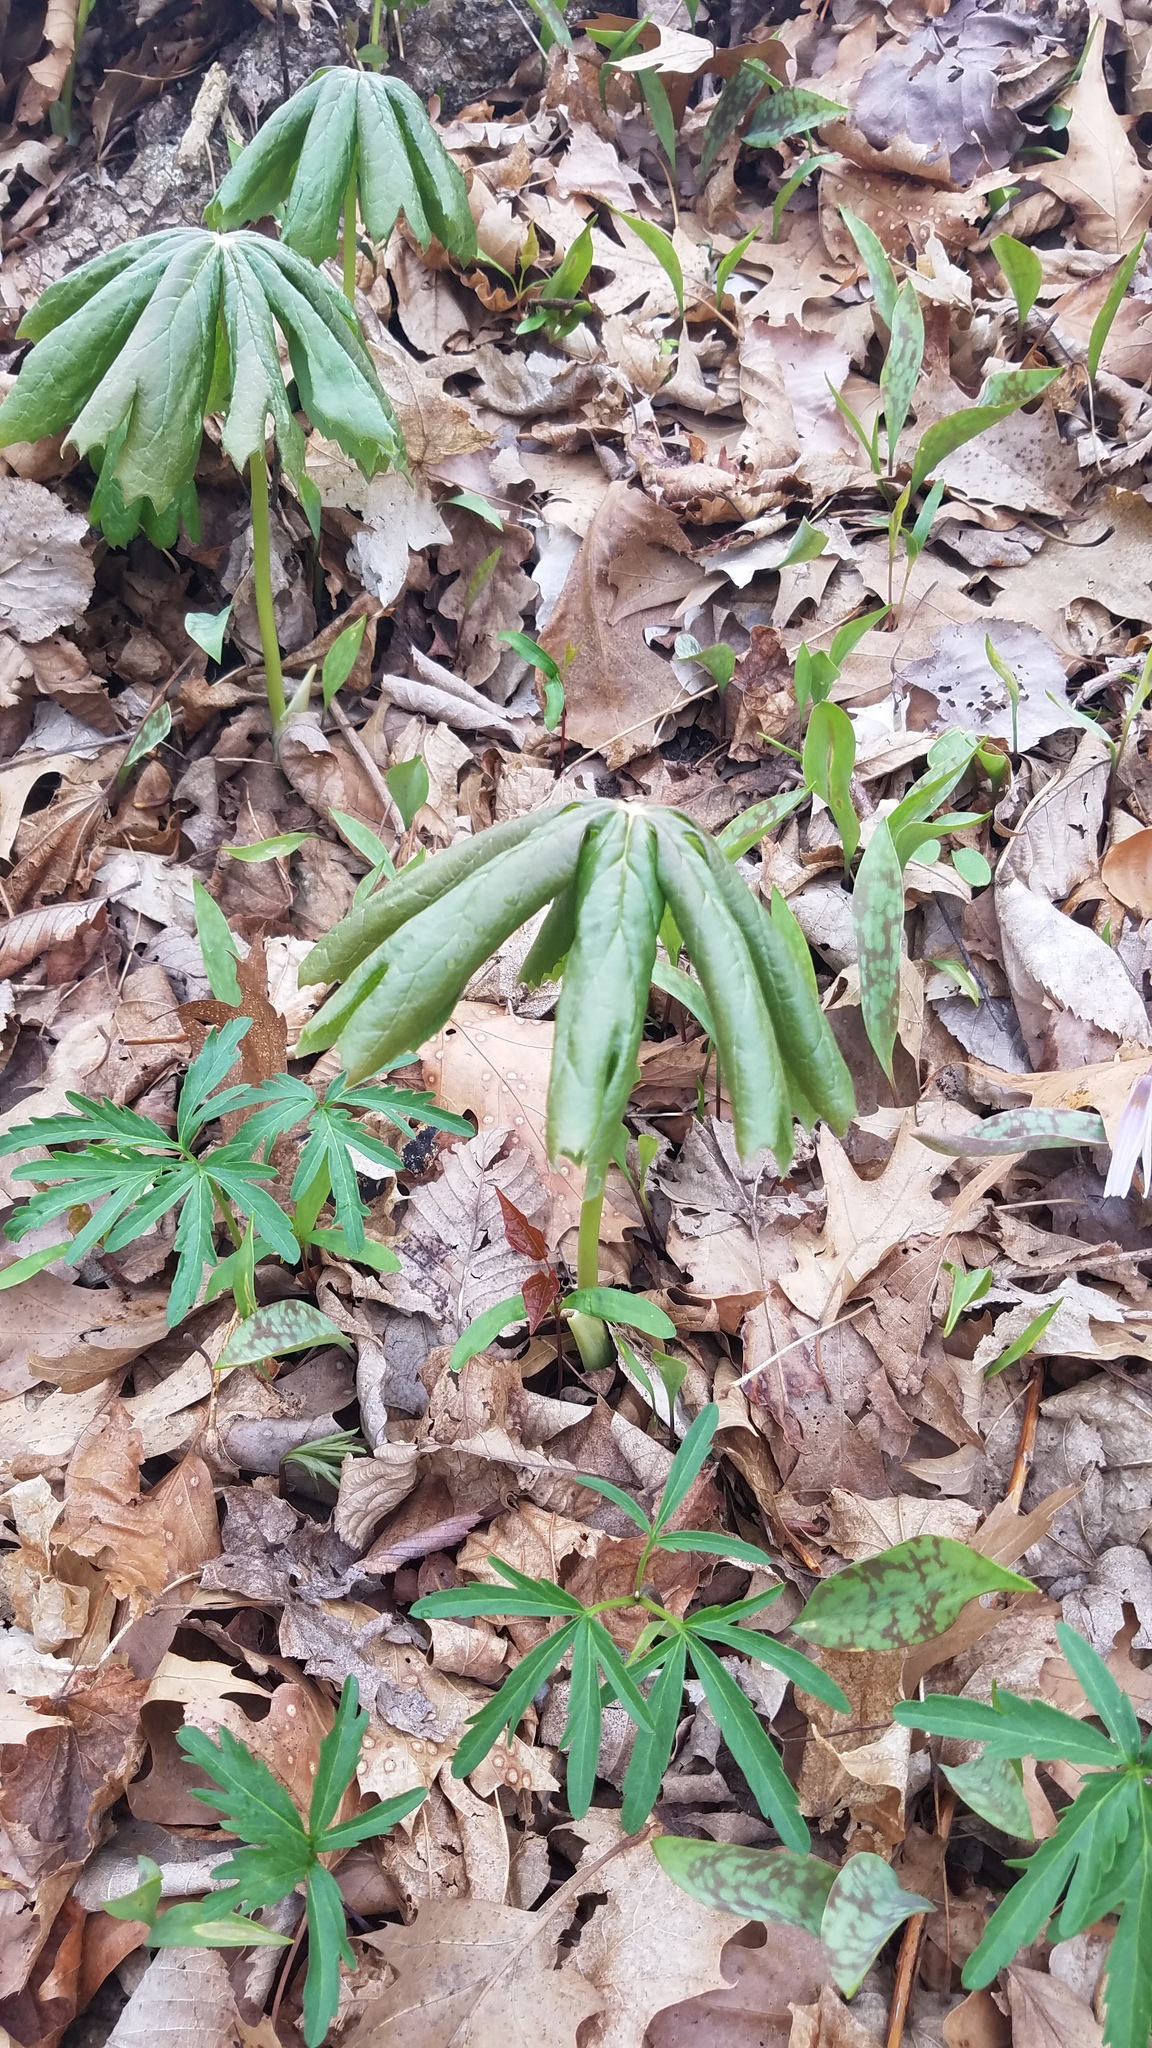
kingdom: Plantae
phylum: Tracheophyta
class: Magnoliopsida
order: Ranunculales
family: Berberidaceae
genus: Podophyllum
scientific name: Podophyllum peltatum
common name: Wild mandrake
